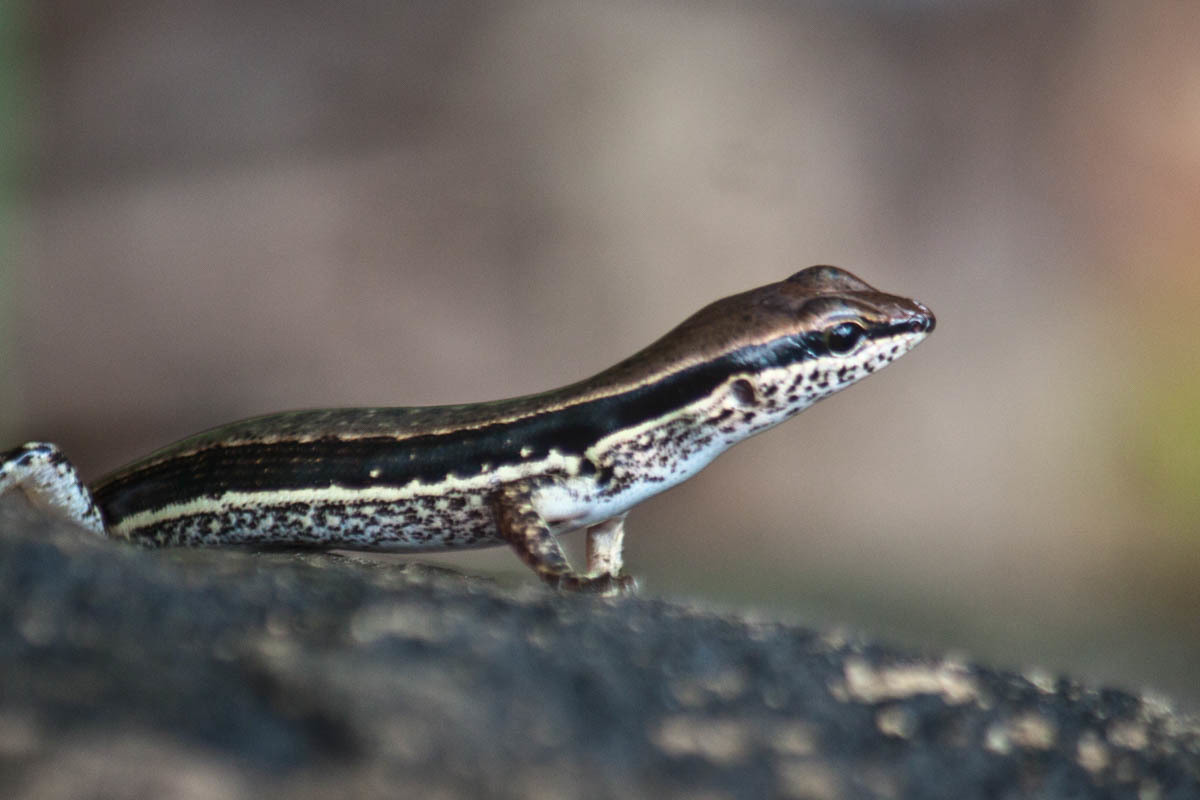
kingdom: Animalia
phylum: Chordata
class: Squamata
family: Scincidae
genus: Sphenomorphus
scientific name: Sphenomorphus maculatus
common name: Maculated forest skink
